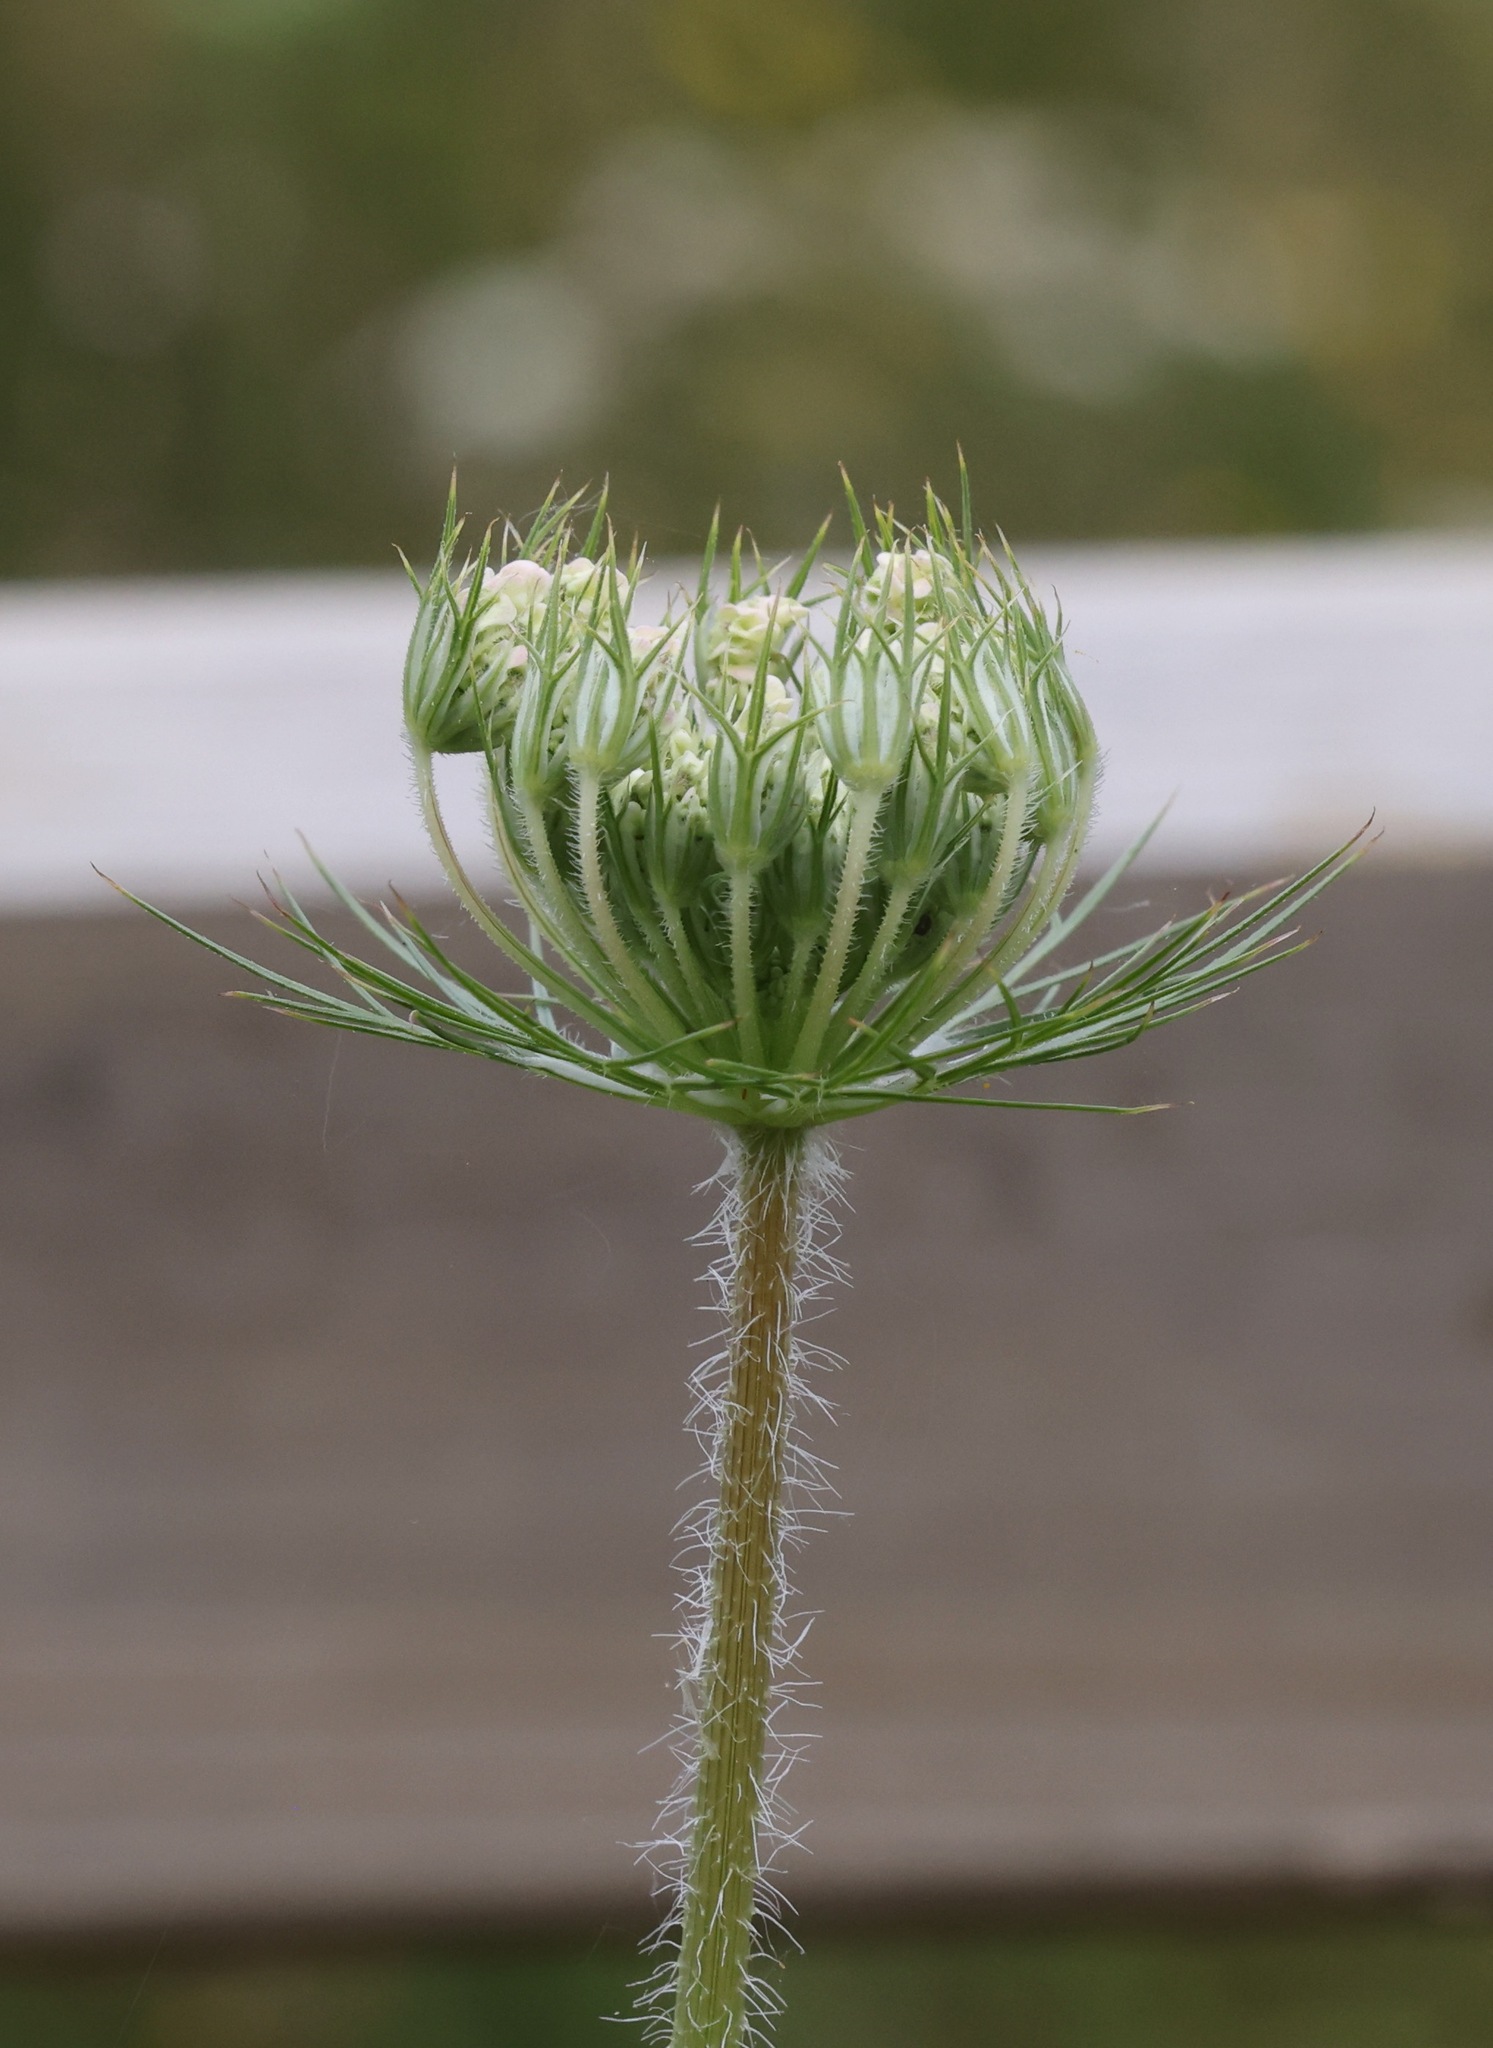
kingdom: Plantae
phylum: Tracheophyta
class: Magnoliopsida
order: Apiales
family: Apiaceae
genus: Daucus
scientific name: Daucus carota
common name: Wild carrot
